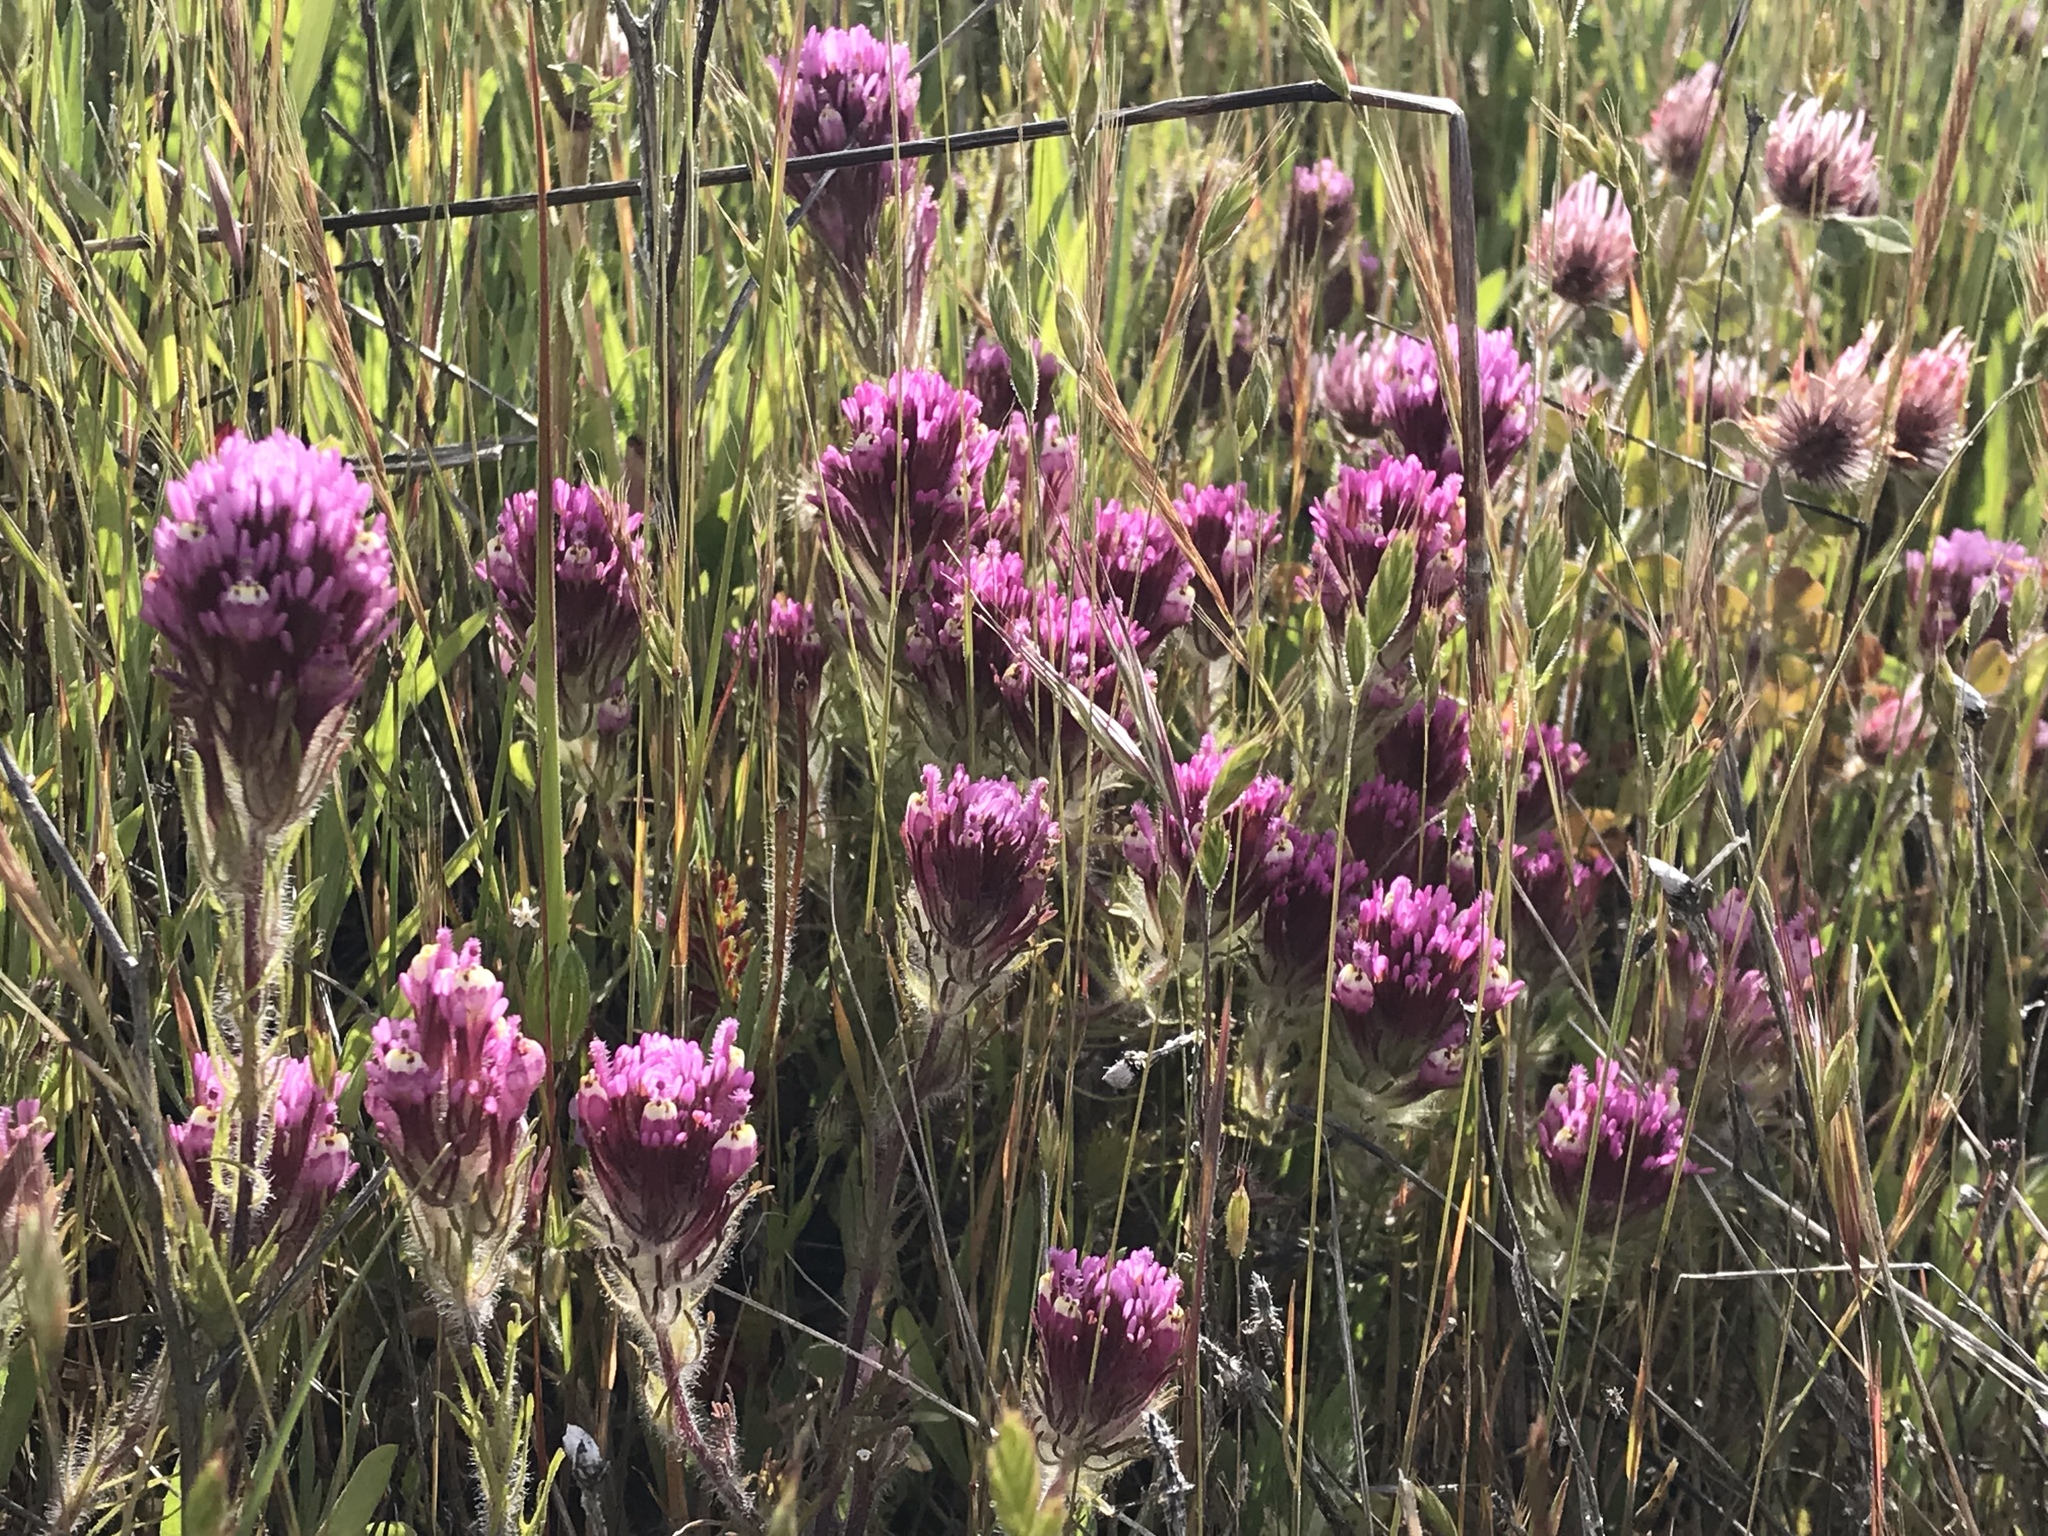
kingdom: Plantae
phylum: Tracheophyta
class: Magnoliopsida
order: Lamiales
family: Orobanchaceae
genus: Castilleja
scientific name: Castilleja exserta
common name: Purple owl-clover
